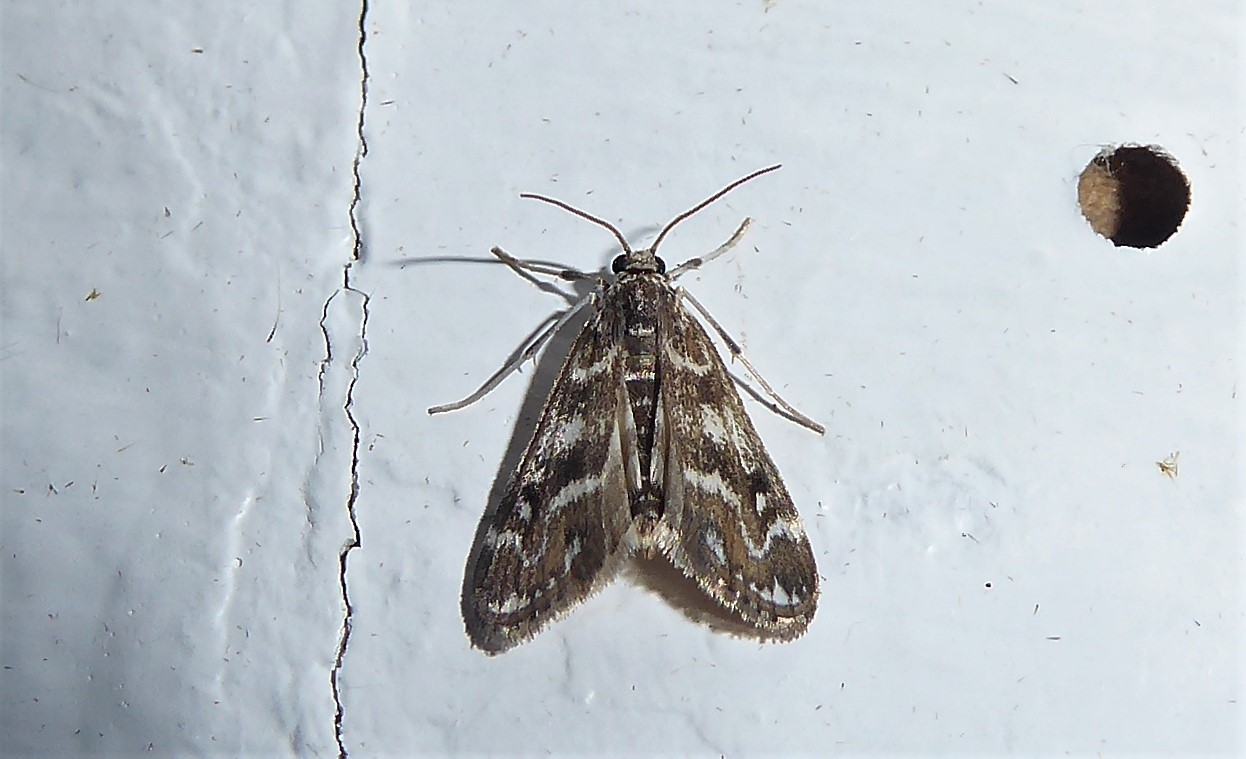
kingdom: Animalia
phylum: Arthropoda
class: Insecta
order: Lepidoptera
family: Crambidae
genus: Hygraula
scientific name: Hygraula nitens
